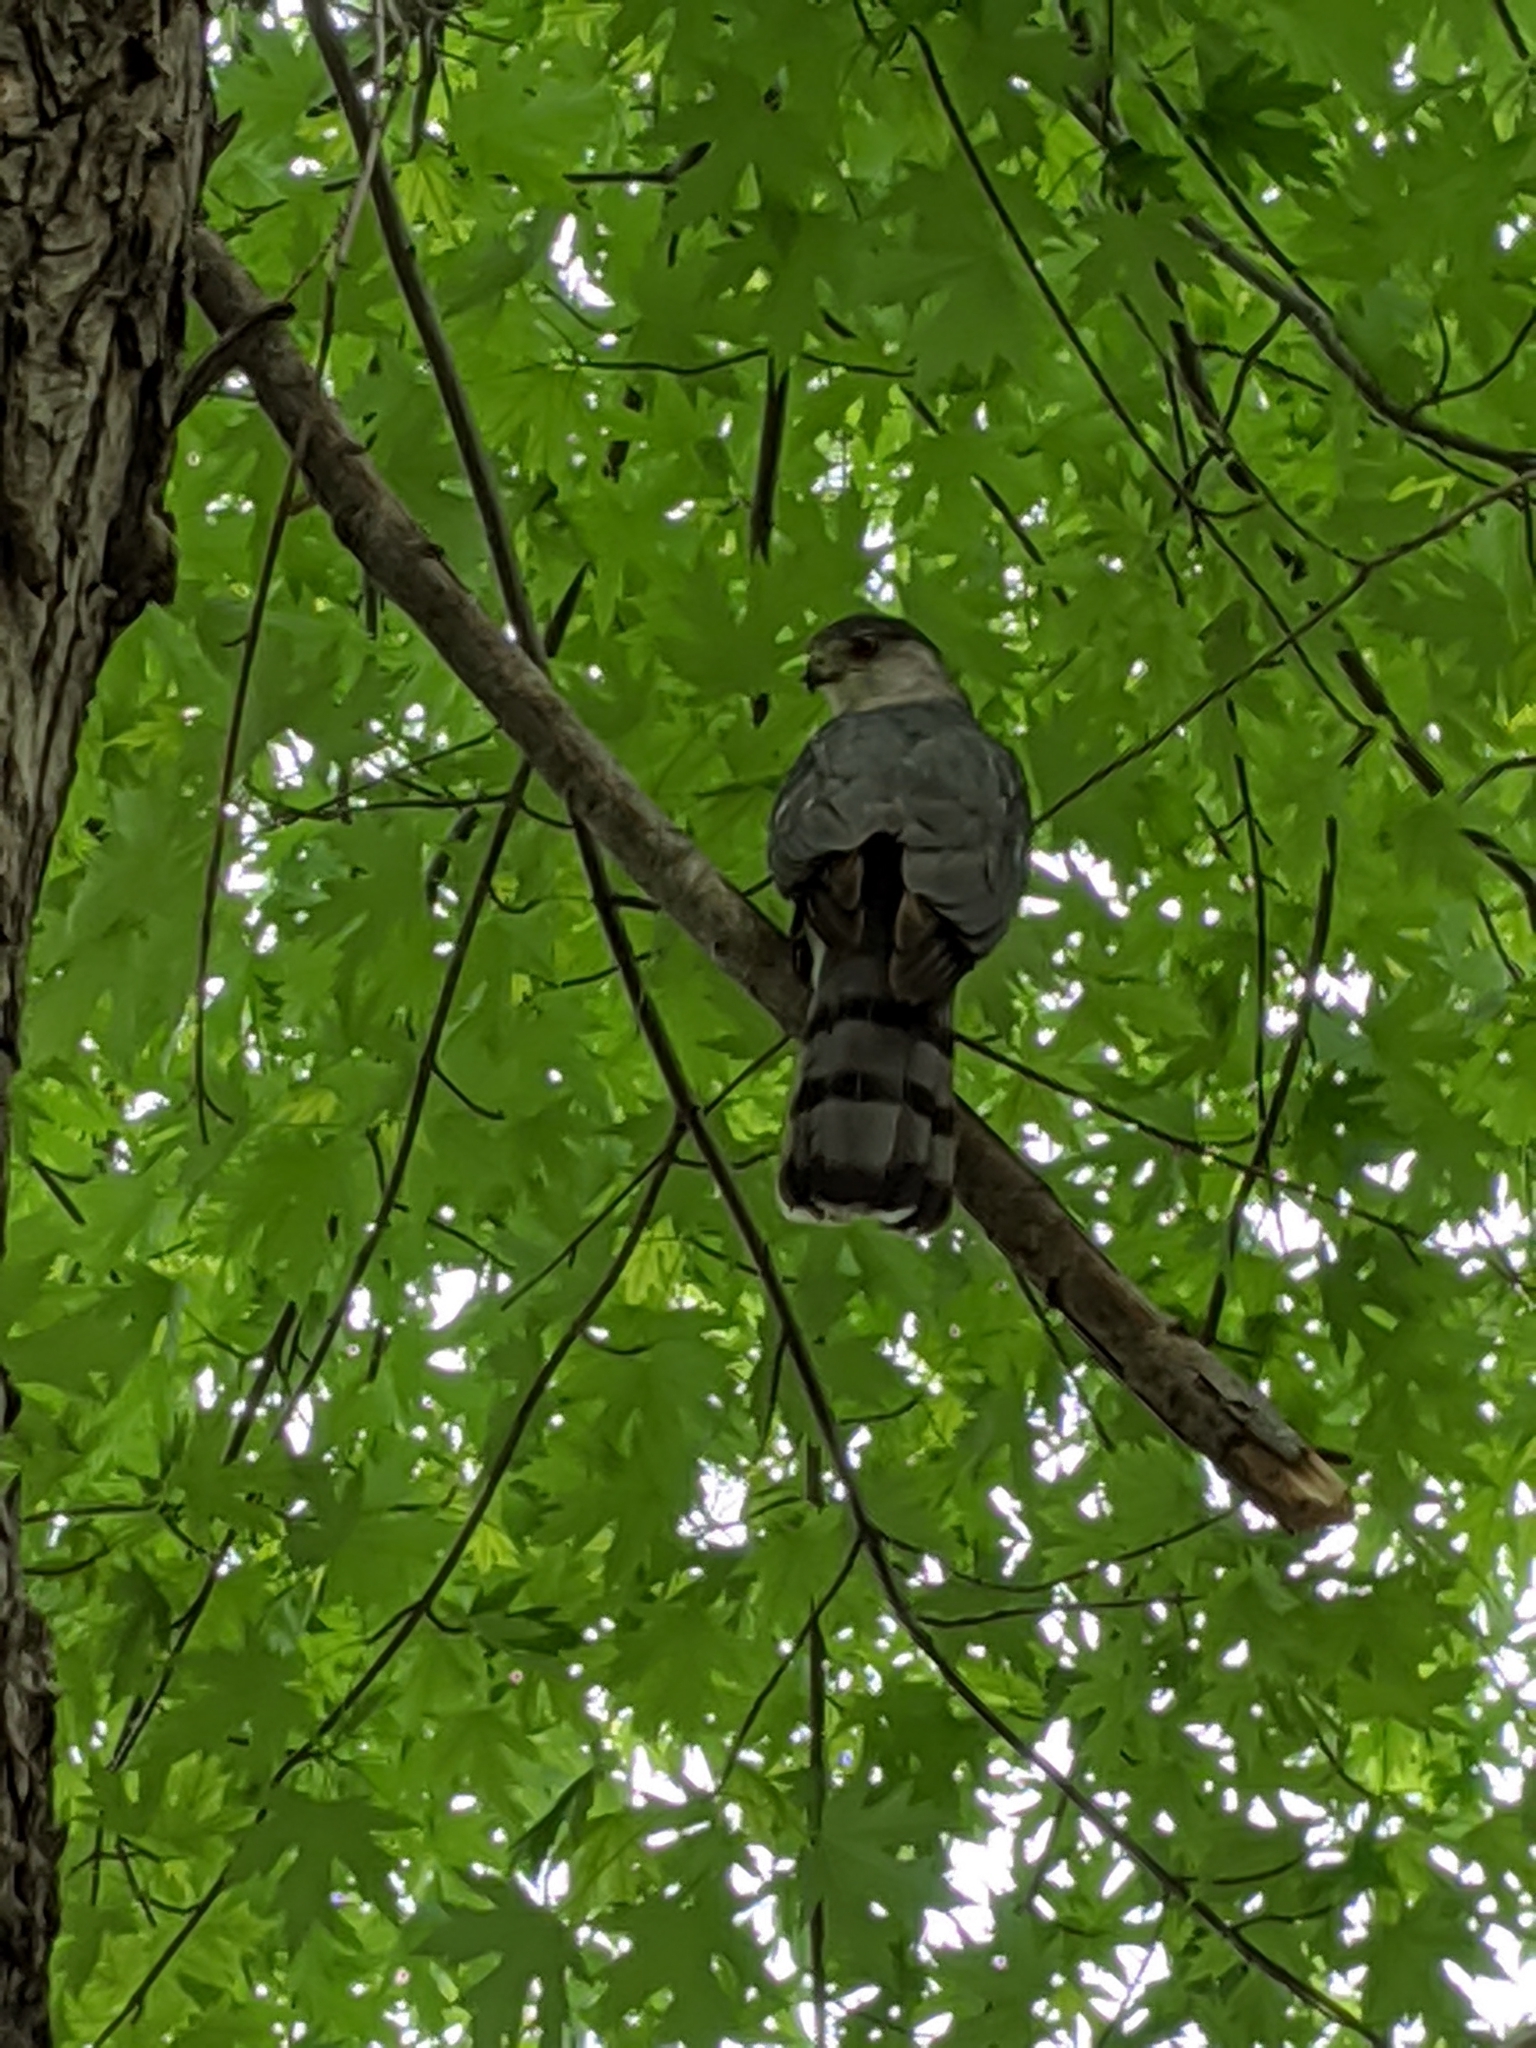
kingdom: Animalia
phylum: Chordata
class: Aves
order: Accipitriformes
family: Accipitridae
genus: Accipiter
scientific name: Accipiter cooperii
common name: Cooper's hawk
